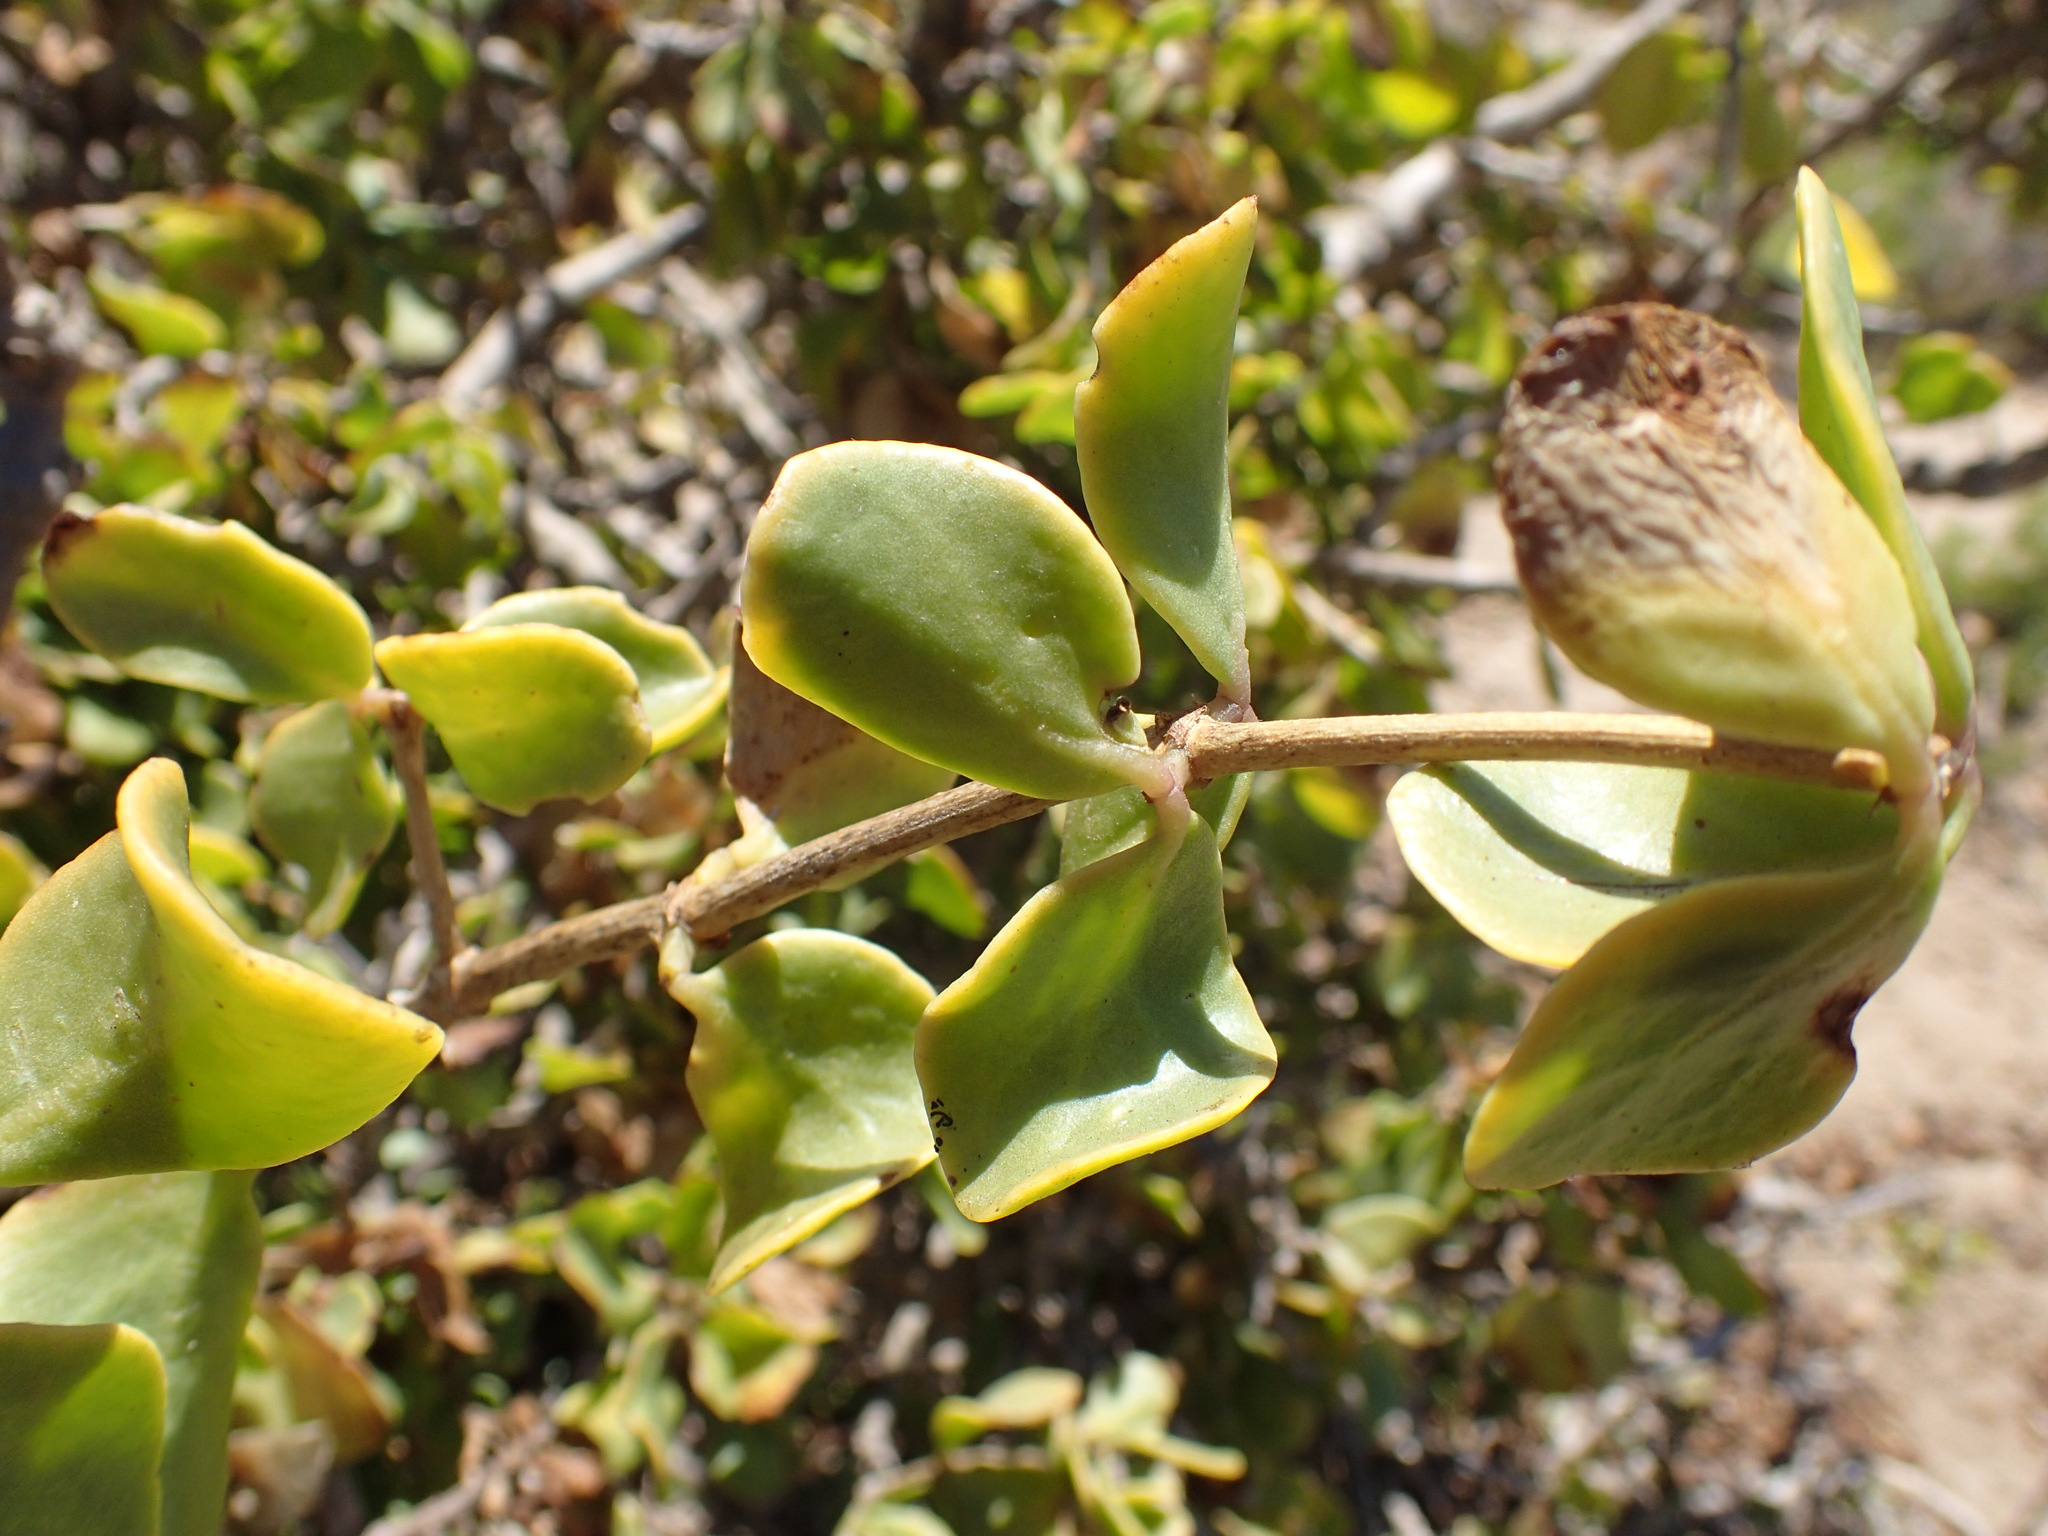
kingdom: Plantae
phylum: Tracheophyta
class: Magnoliopsida
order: Zygophyllales
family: Zygophyllaceae
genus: Roepera
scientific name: Roepera morgsana
